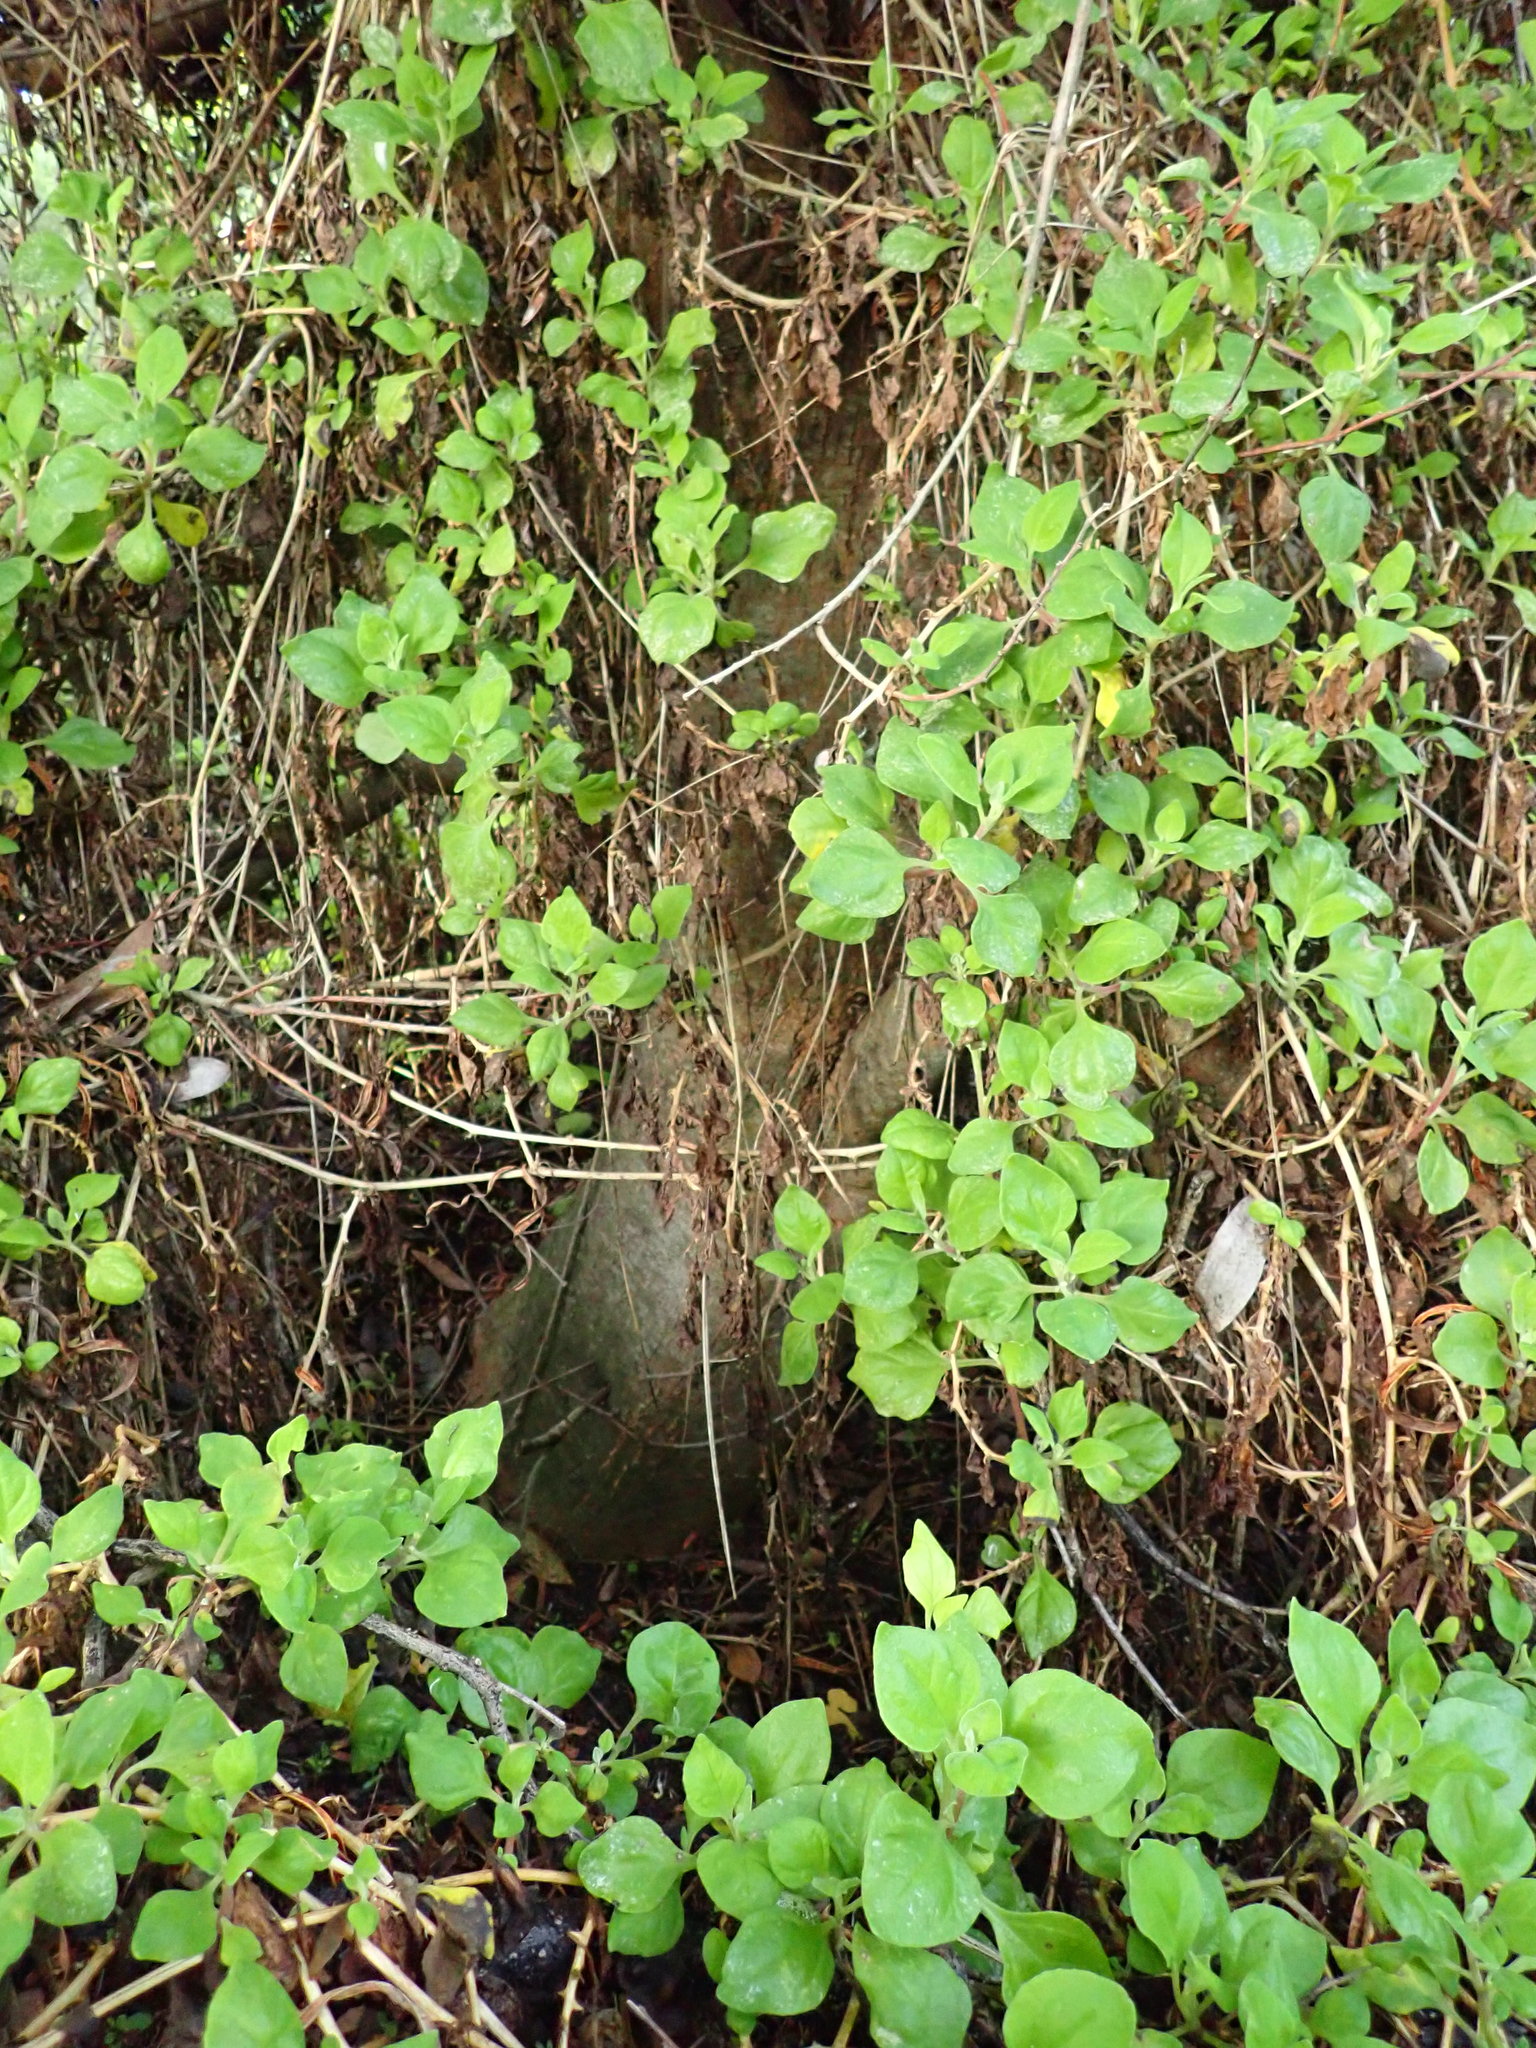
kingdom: Plantae
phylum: Tracheophyta
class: Magnoliopsida
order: Fabales
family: Fabaceae
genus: Acacia
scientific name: Acacia longifolia
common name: Sydney golden wattle
